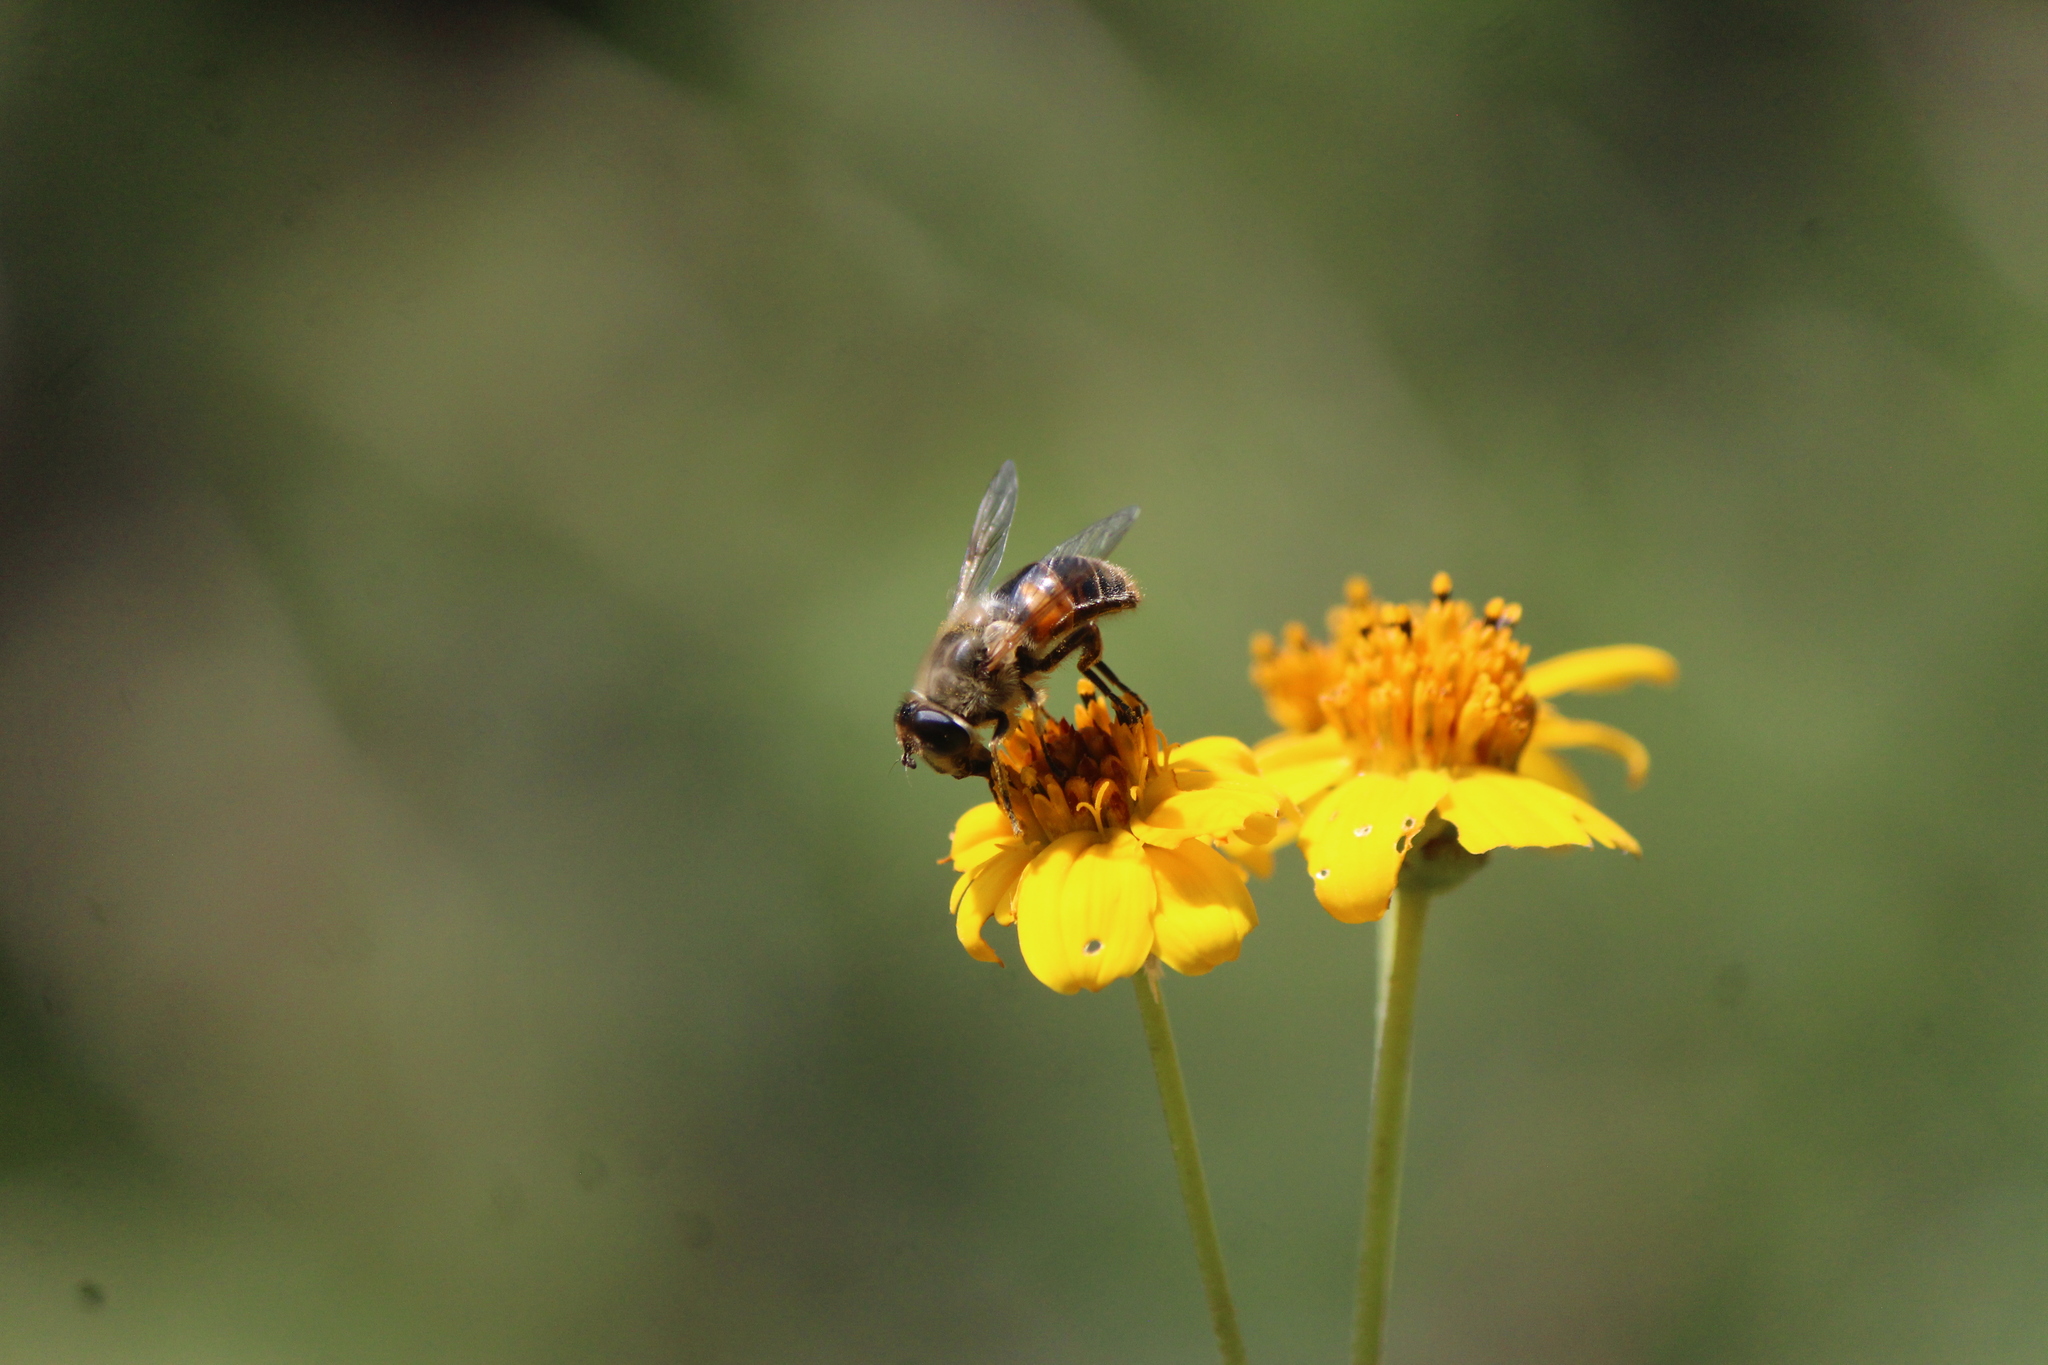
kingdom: Animalia
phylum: Arthropoda
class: Insecta
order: Diptera
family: Syrphidae
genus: Eristalis
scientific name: Eristalis tenax
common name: Drone fly
